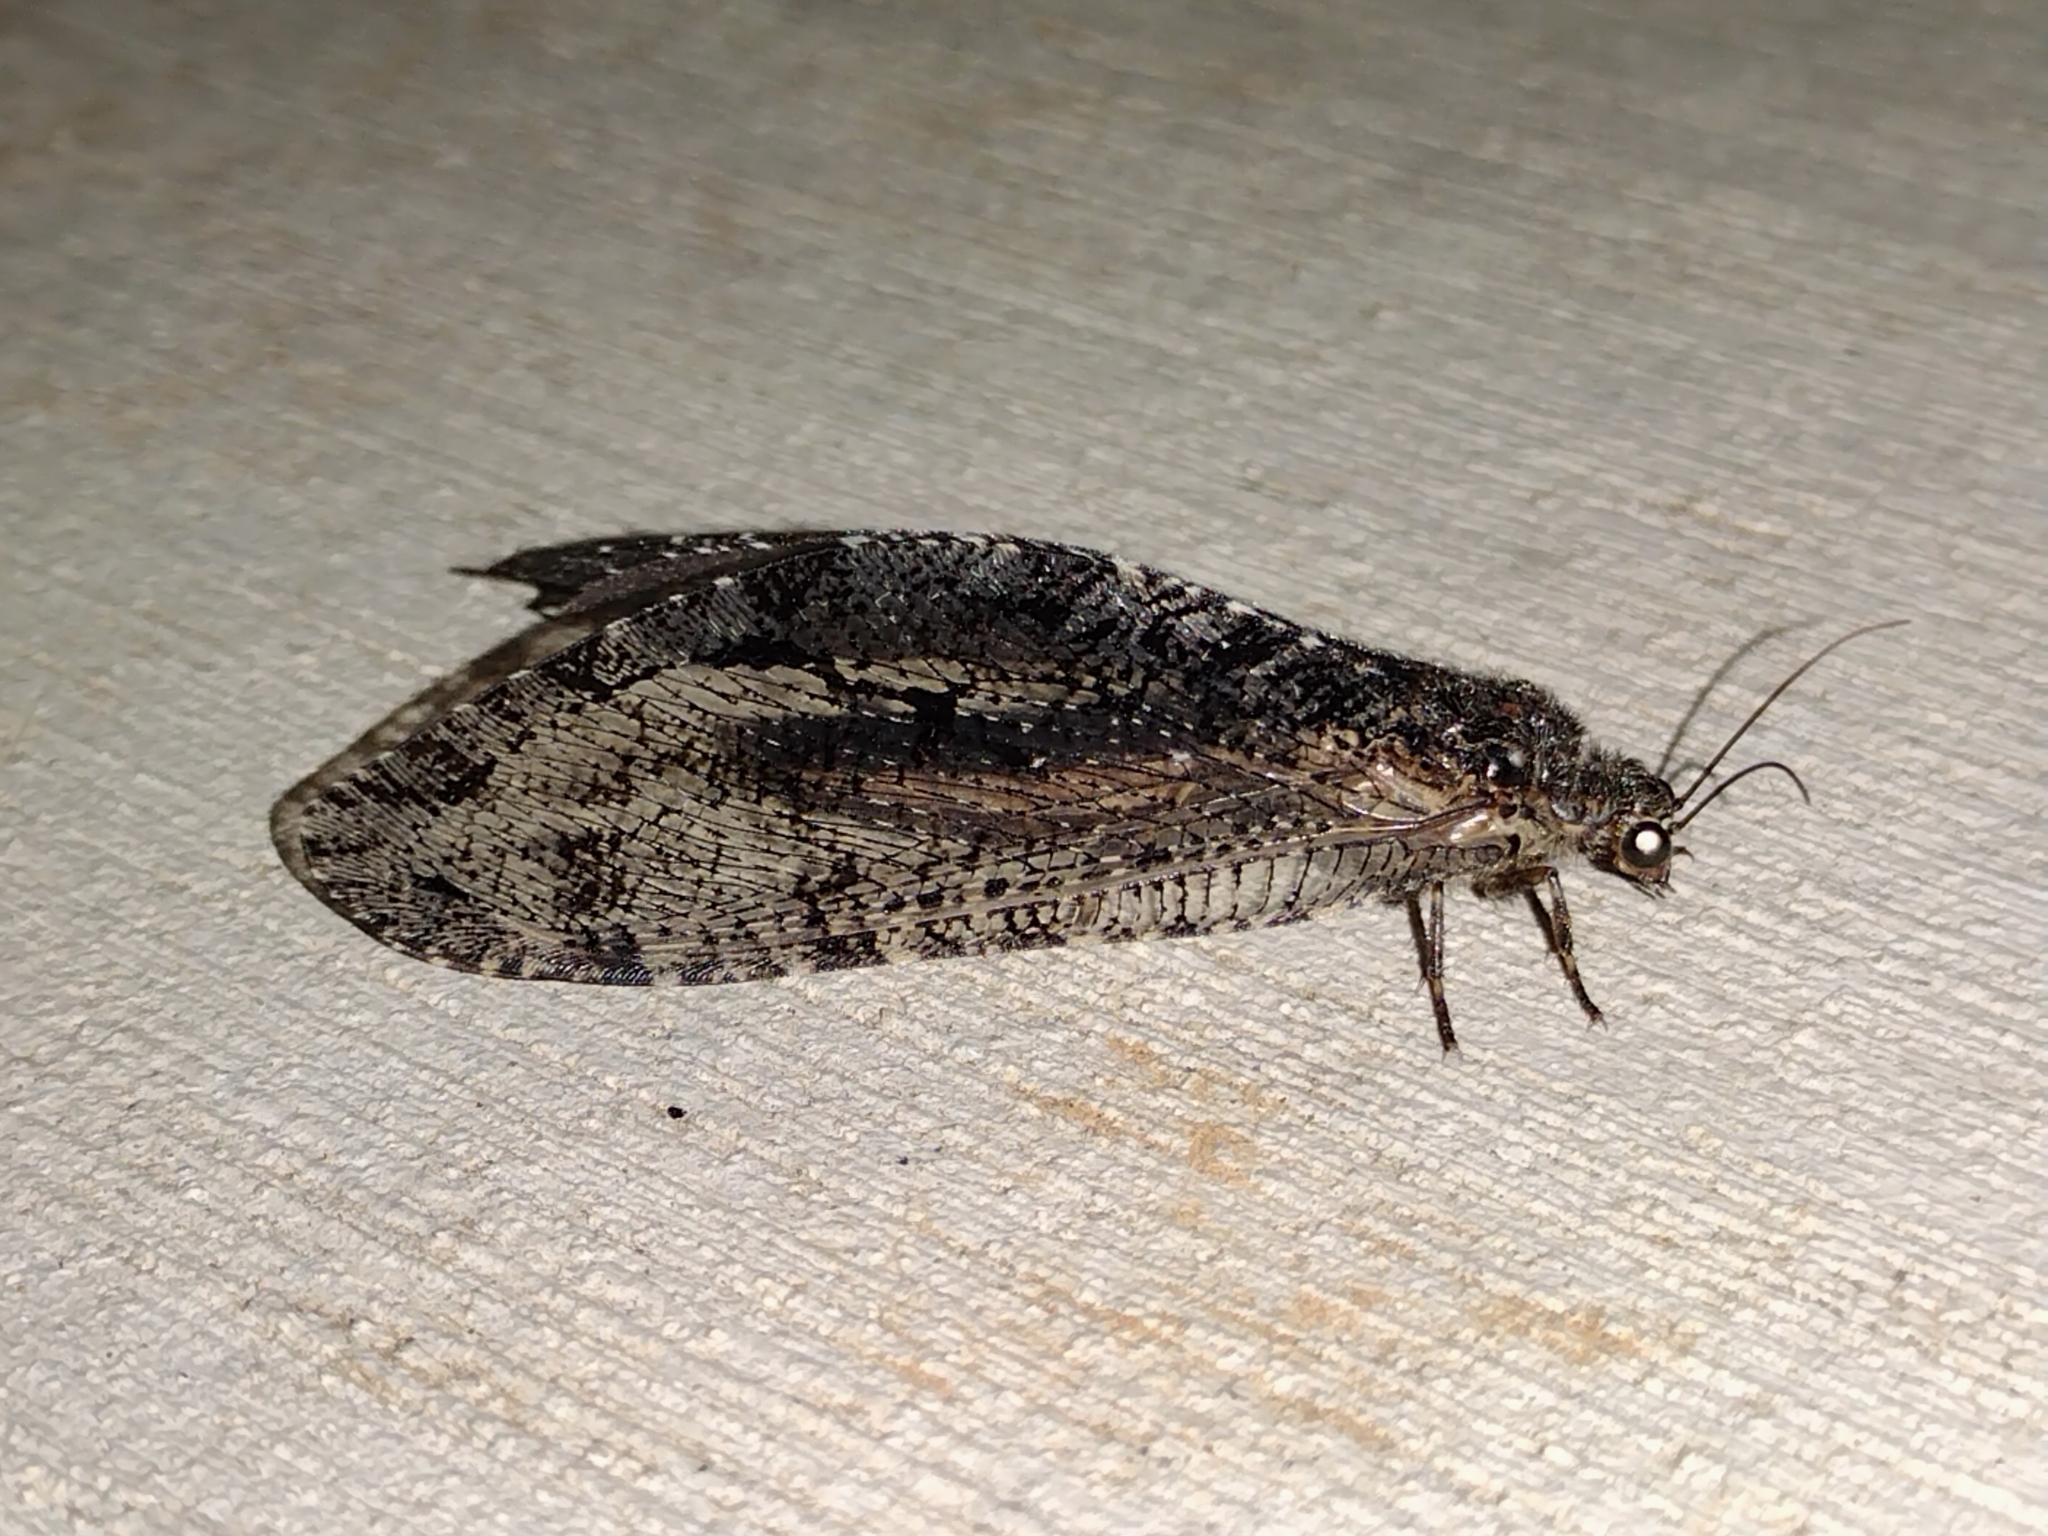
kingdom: Animalia
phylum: Arthropoda
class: Insecta
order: Neuroptera
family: Ithonidae
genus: Polystoechotes
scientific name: Polystoechotes punctata
